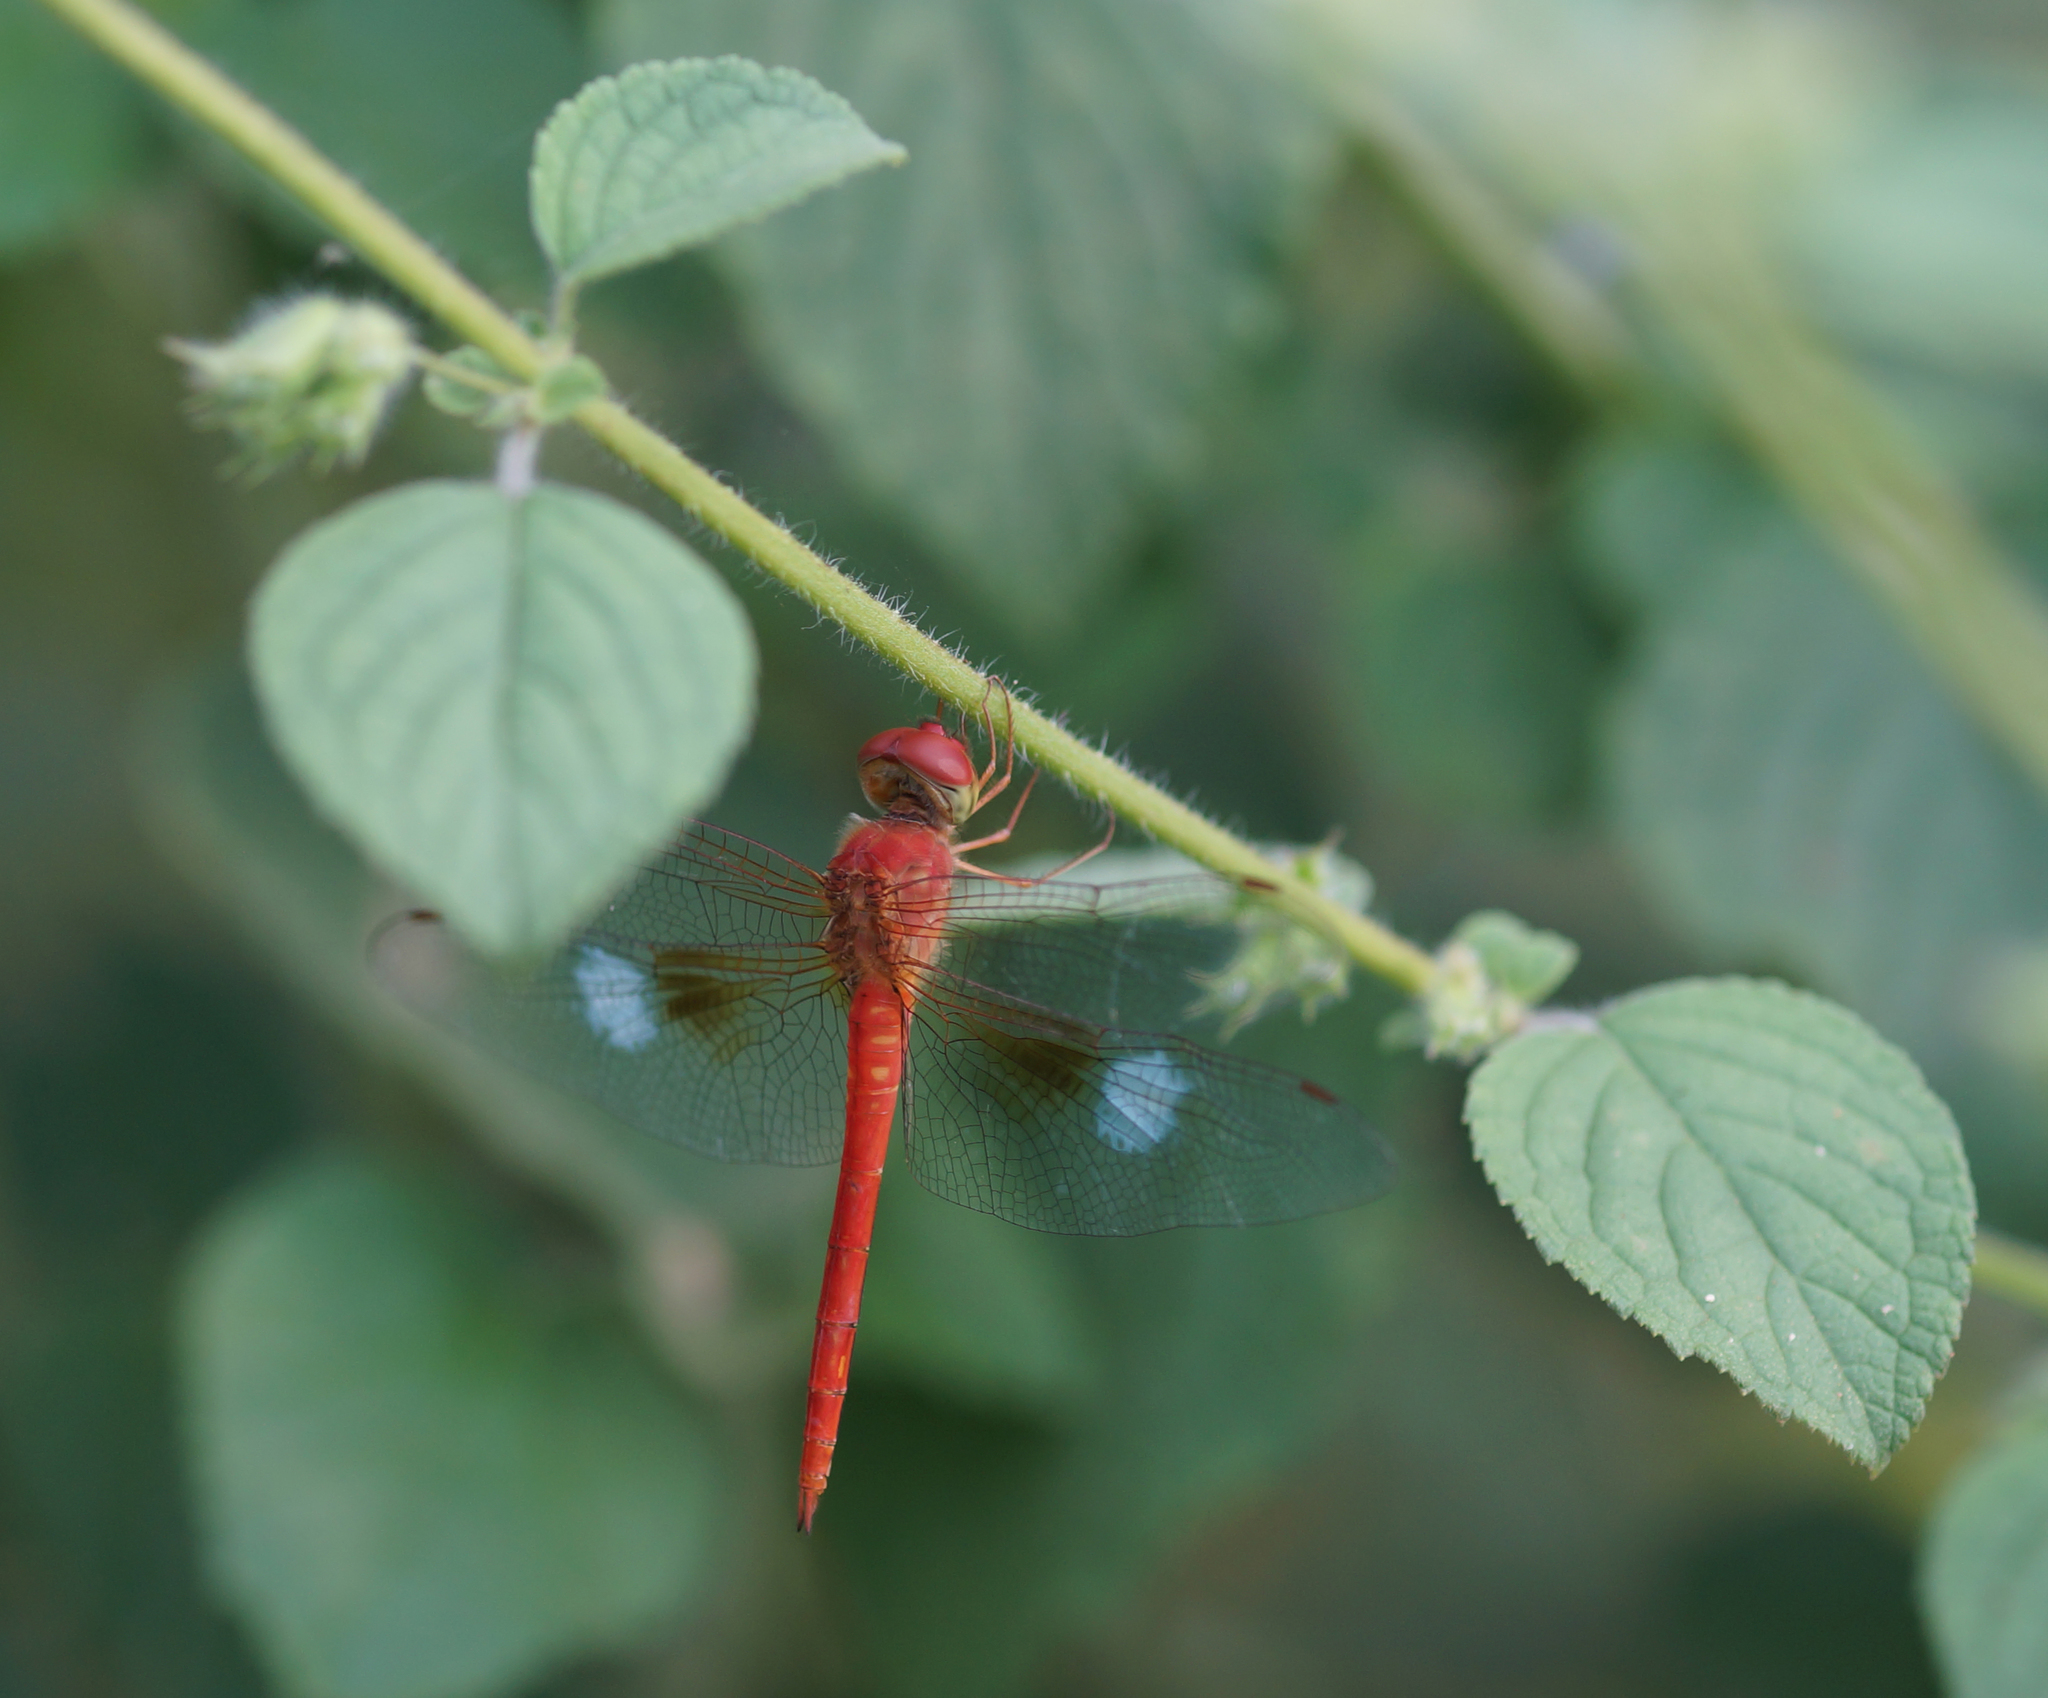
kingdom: Animalia
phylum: Arthropoda
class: Insecta
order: Odonata
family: Libellulidae
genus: Tholymis
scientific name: Tholymis tillarga
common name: Coral-tailed cloud wing
